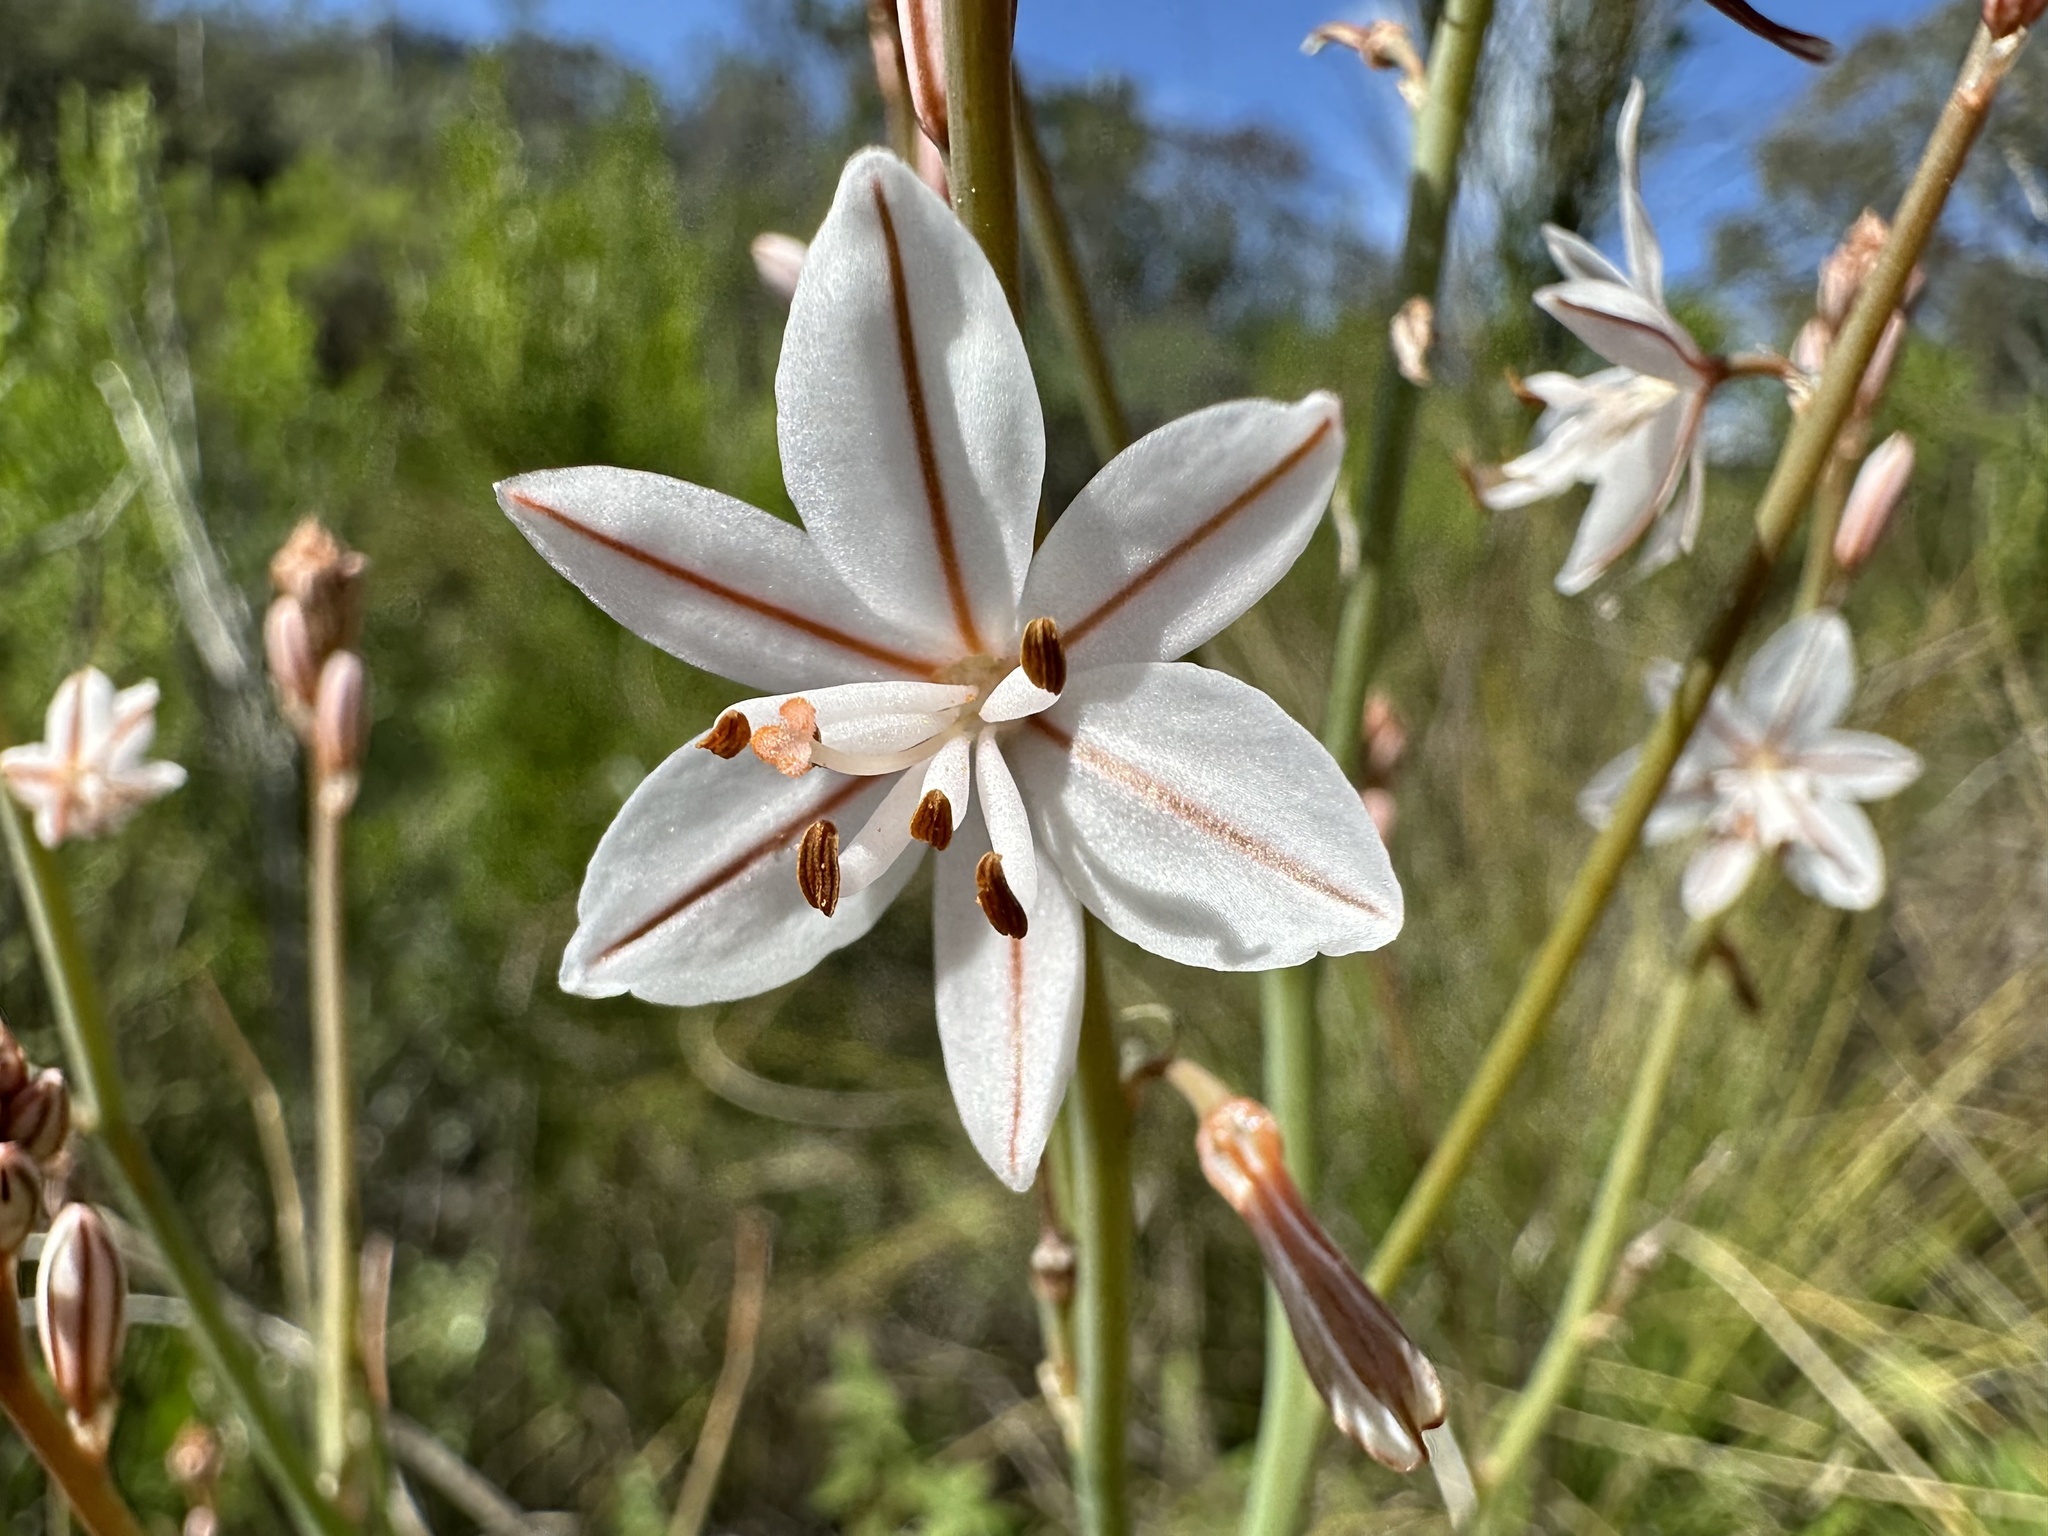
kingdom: Plantae
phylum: Tracheophyta
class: Liliopsida
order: Asparagales
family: Asphodelaceae
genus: Asphodelus
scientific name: Asphodelus fistulosus
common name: Onionweed
